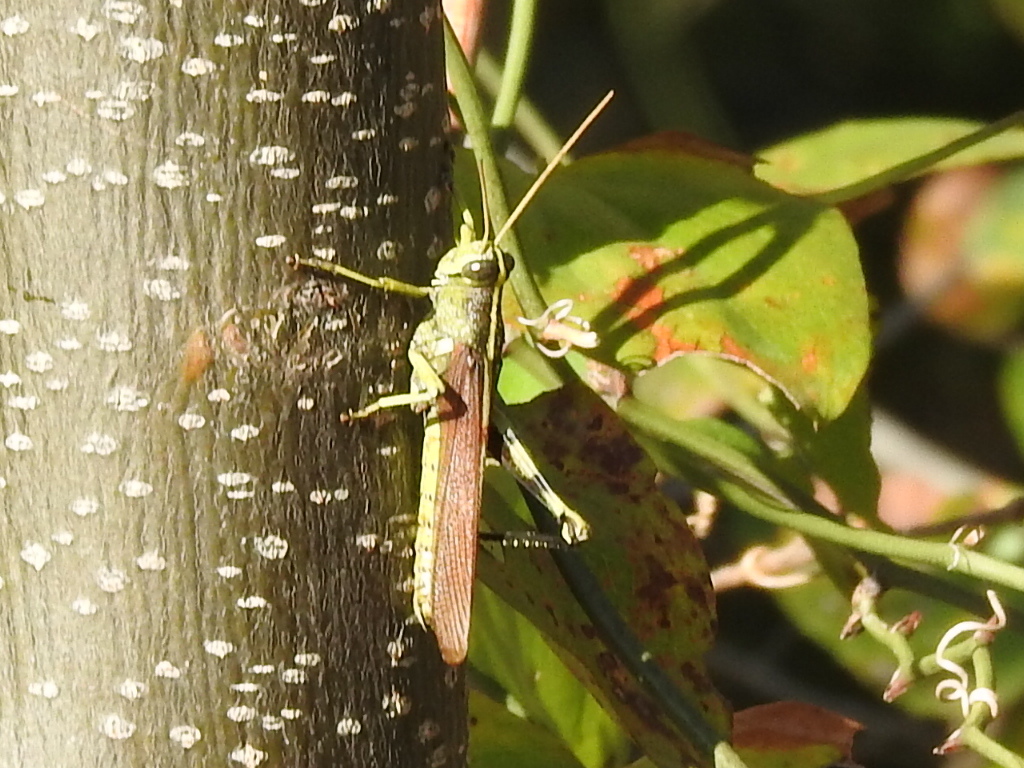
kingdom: Animalia
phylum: Arthropoda
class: Insecta
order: Orthoptera
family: Acrididae
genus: Schistocerca
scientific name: Schistocerca obscura
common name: Obscure bird grasshopper
